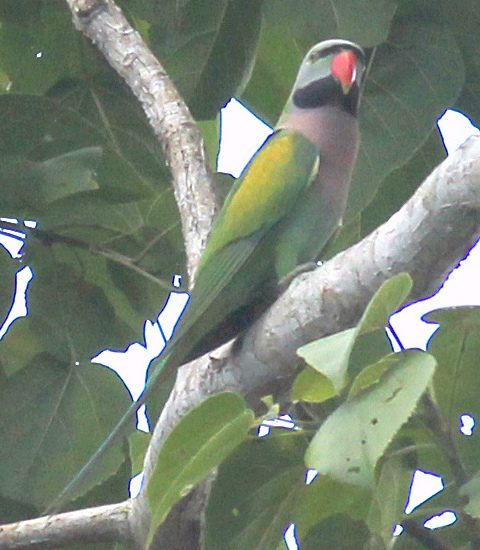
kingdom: Animalia
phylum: Chordata
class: Aves
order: Psittaciformes
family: Psittacidae
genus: Psittacula
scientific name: Psittacula alexandri
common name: Red-breasted parakeet
